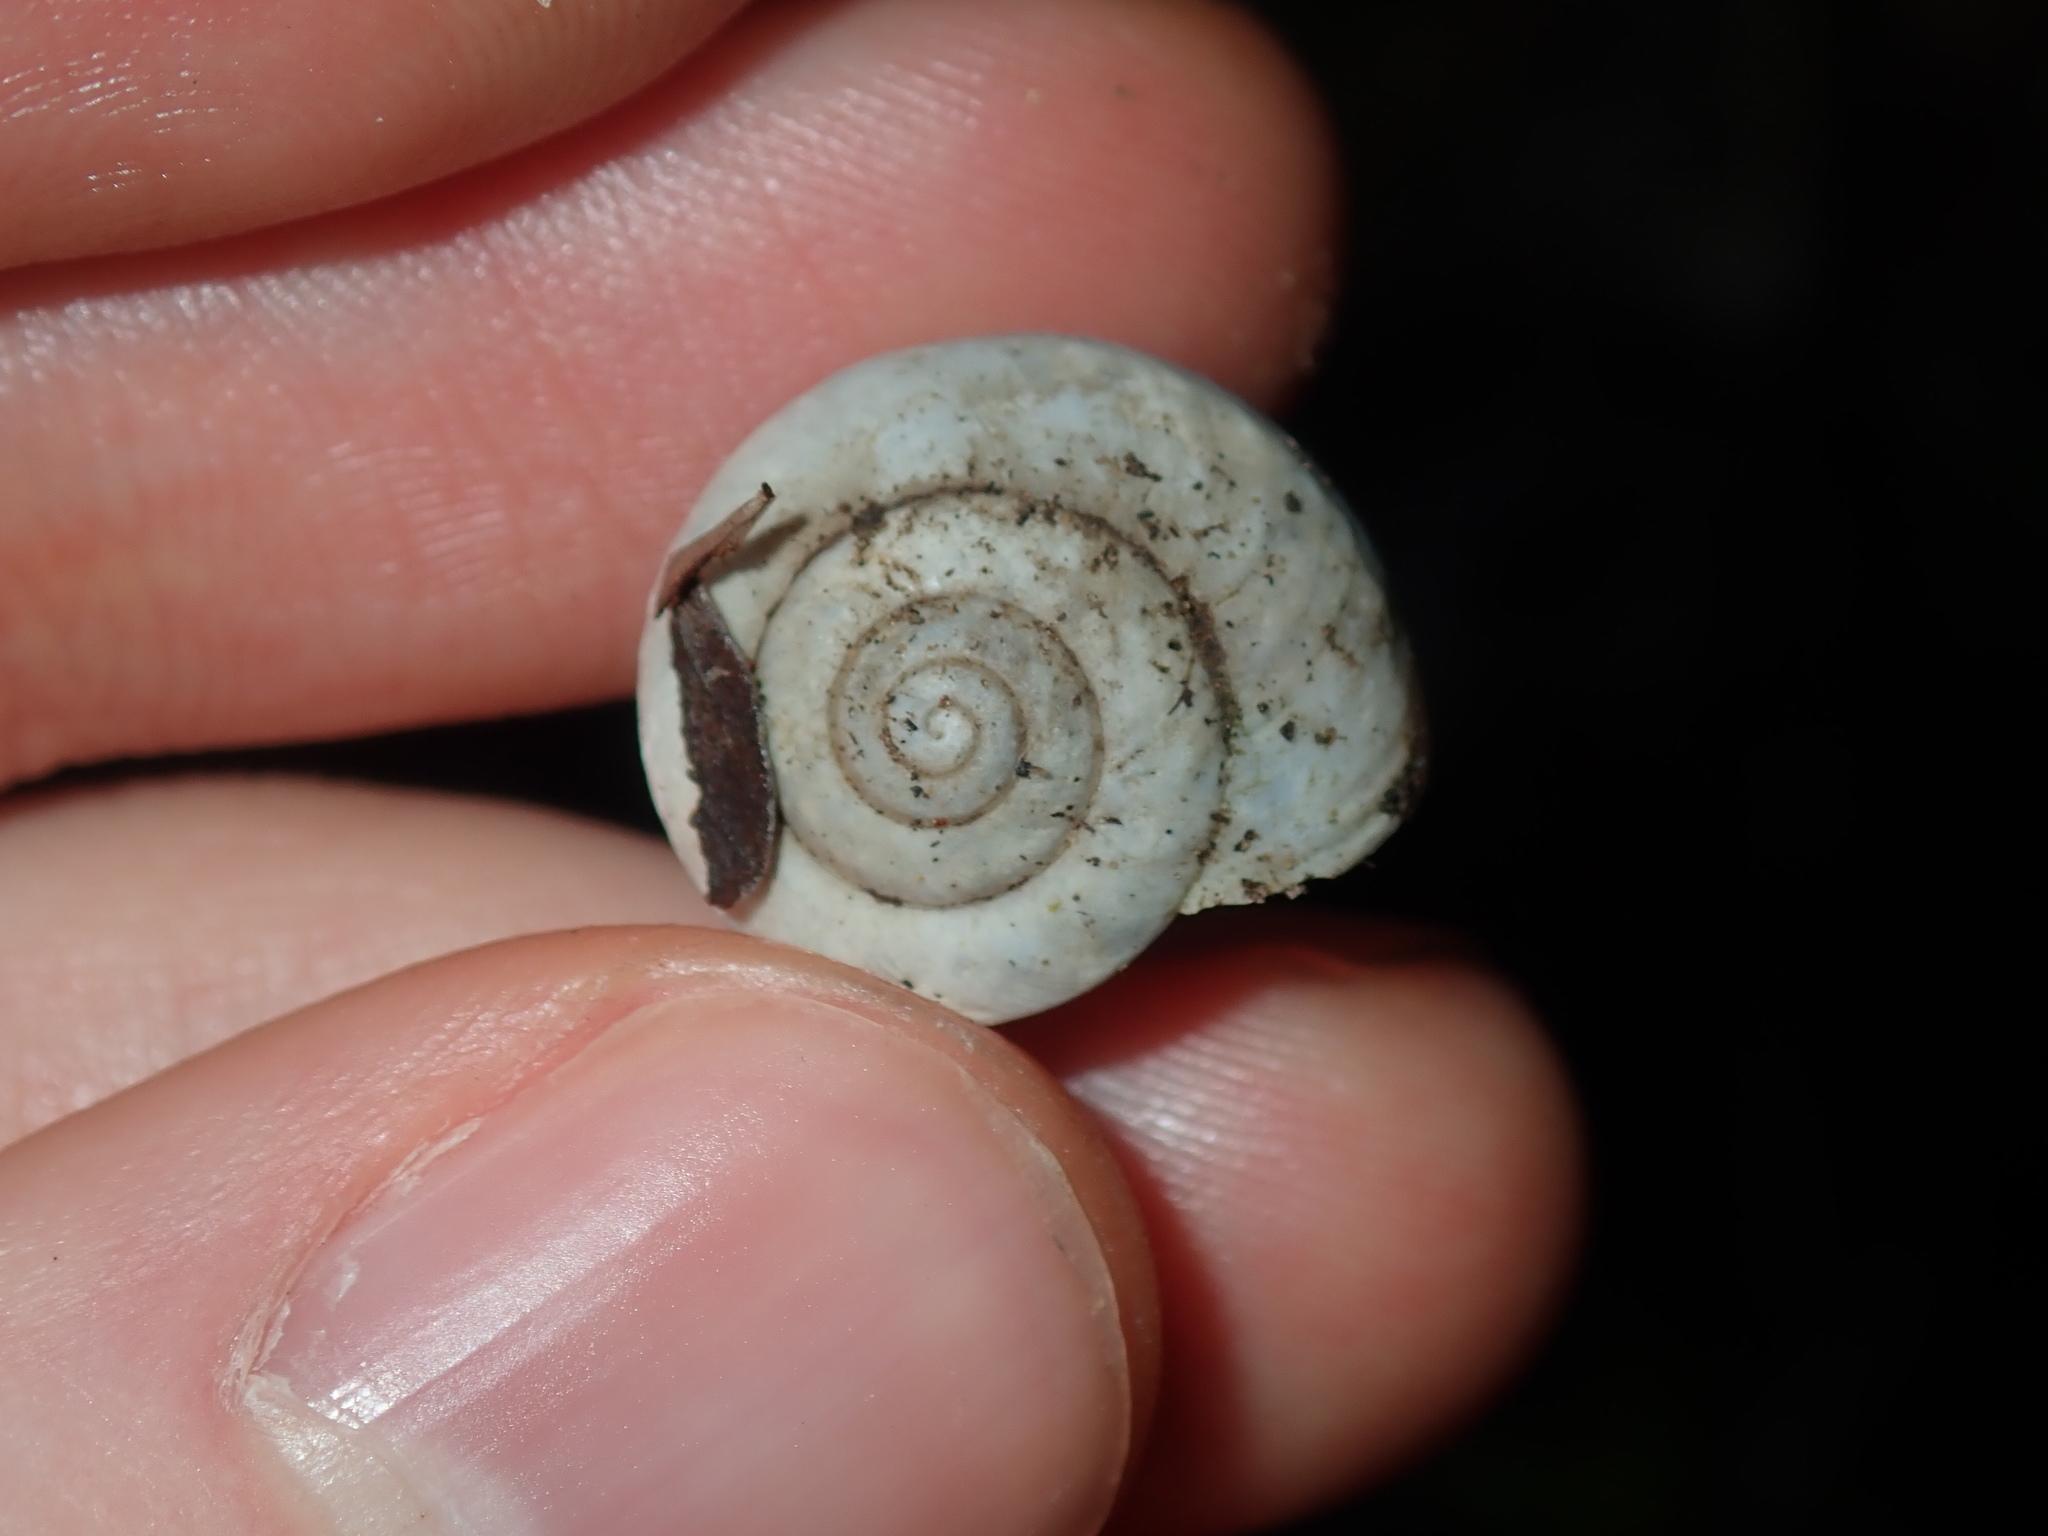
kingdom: Animalia
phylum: Mollusca
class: Gastropoda
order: Stylommatophora
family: Camaenidae
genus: Sauroconcha
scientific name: Sauroconcha sheai
